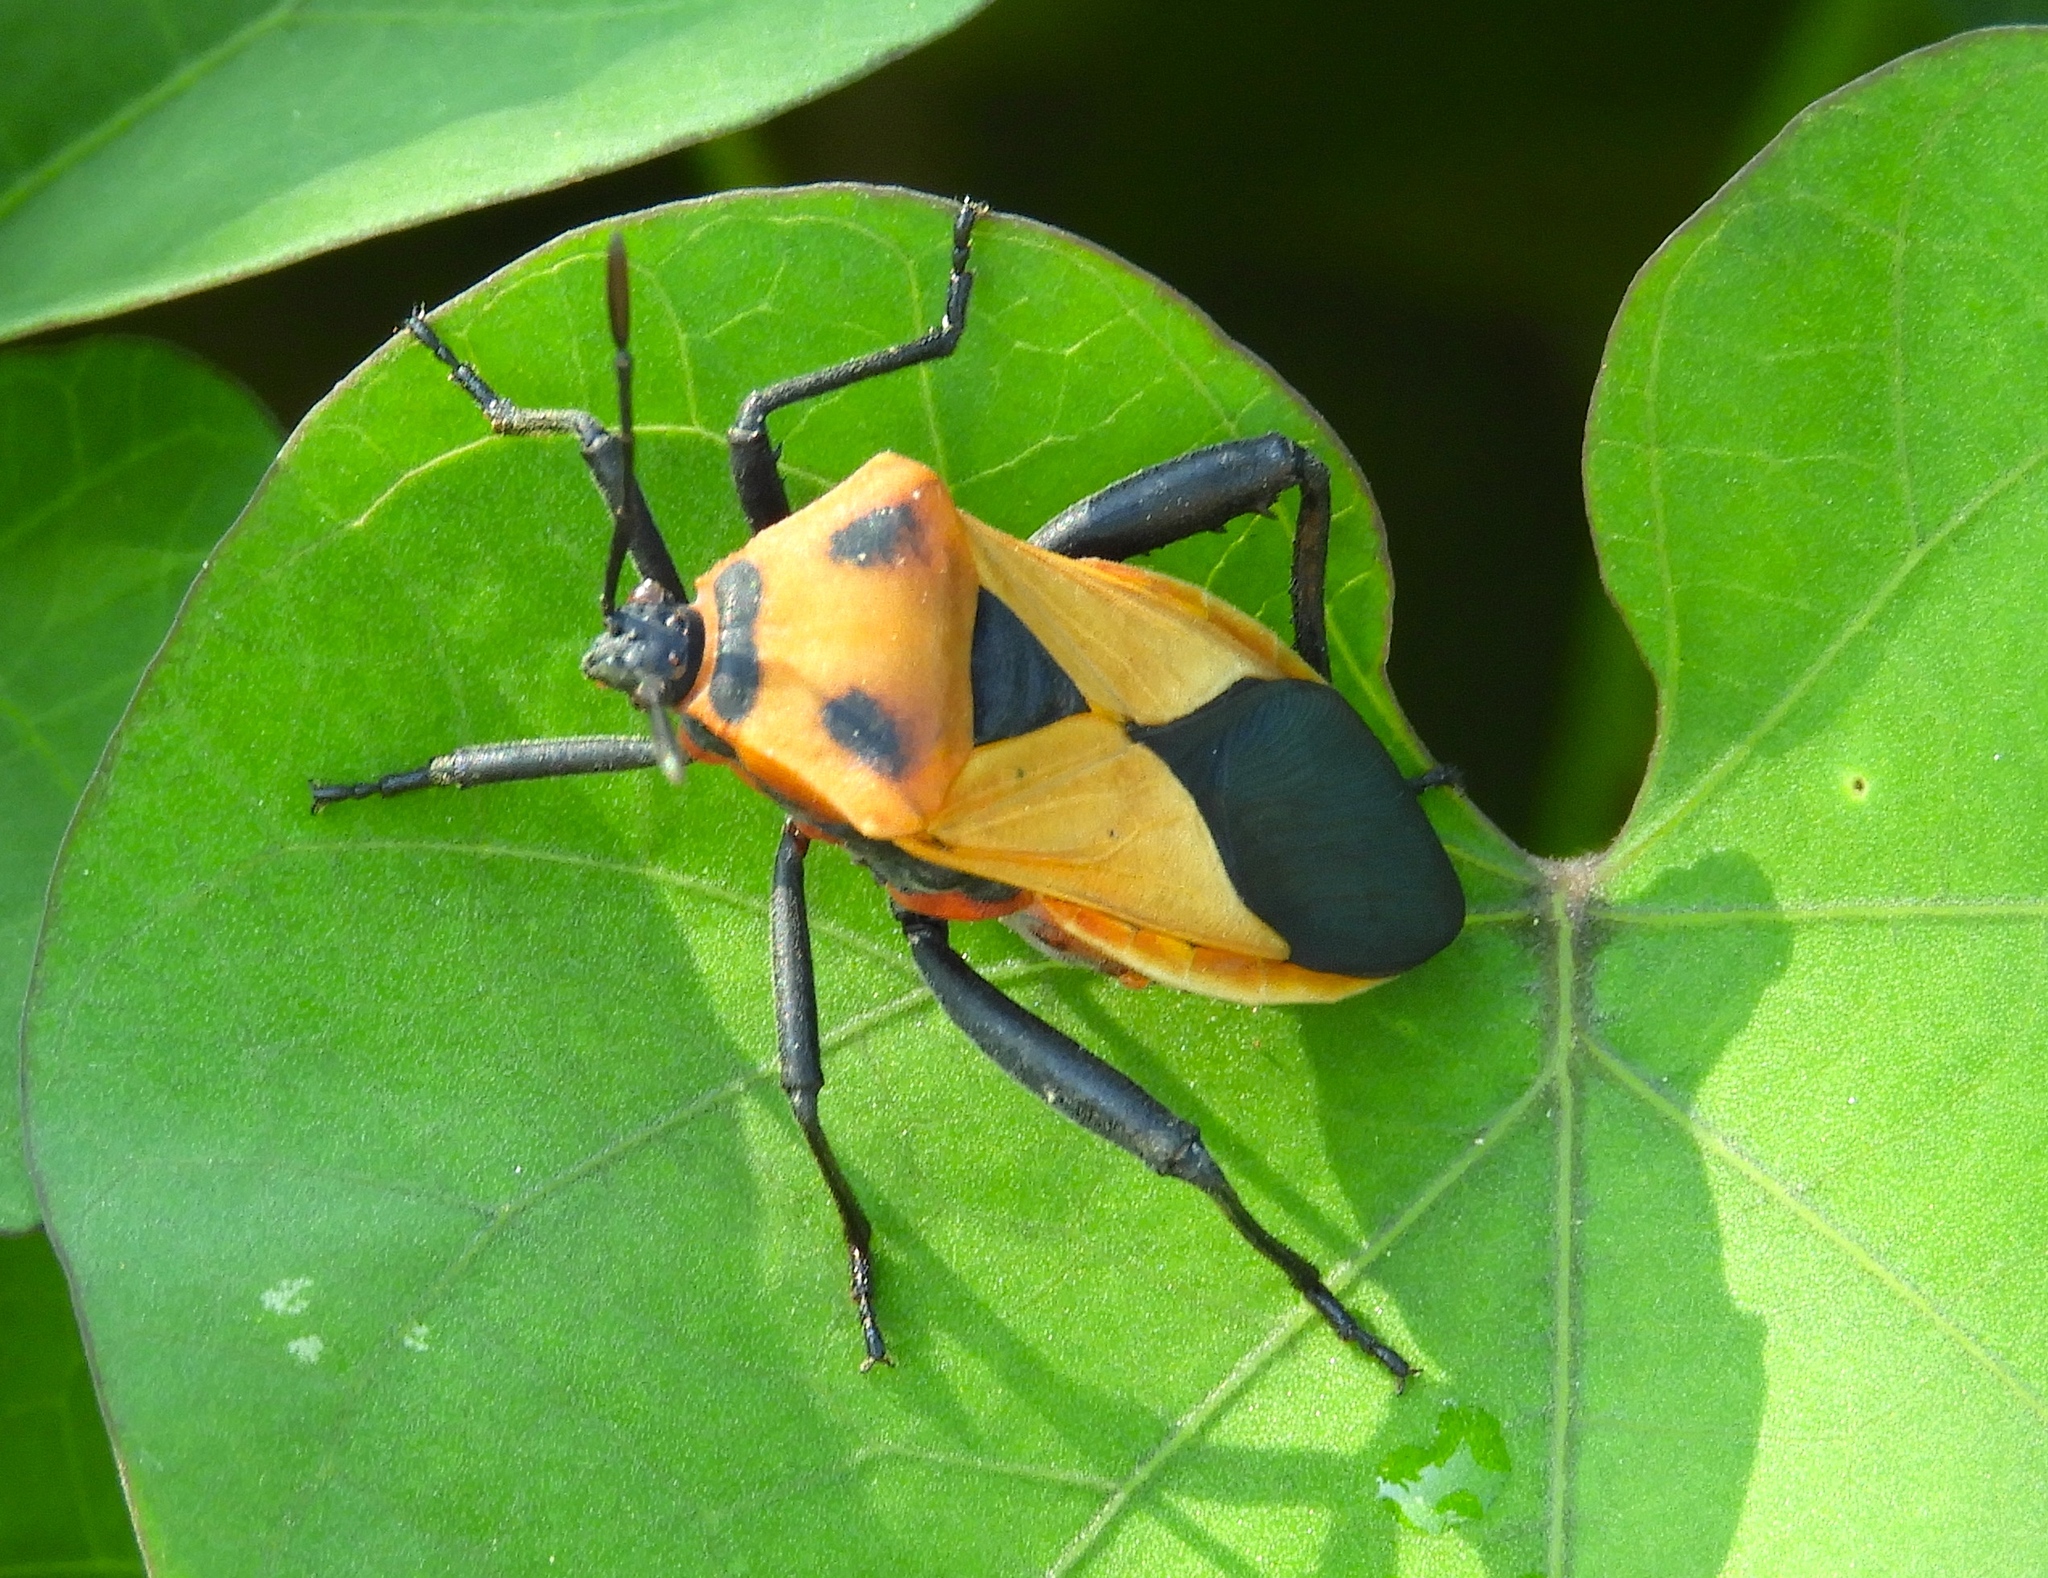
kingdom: Animalia
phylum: Arthropoda
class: Insecta
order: Hemiptera
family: Coreidae
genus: Sagotylus
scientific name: Sagotylus confluens
